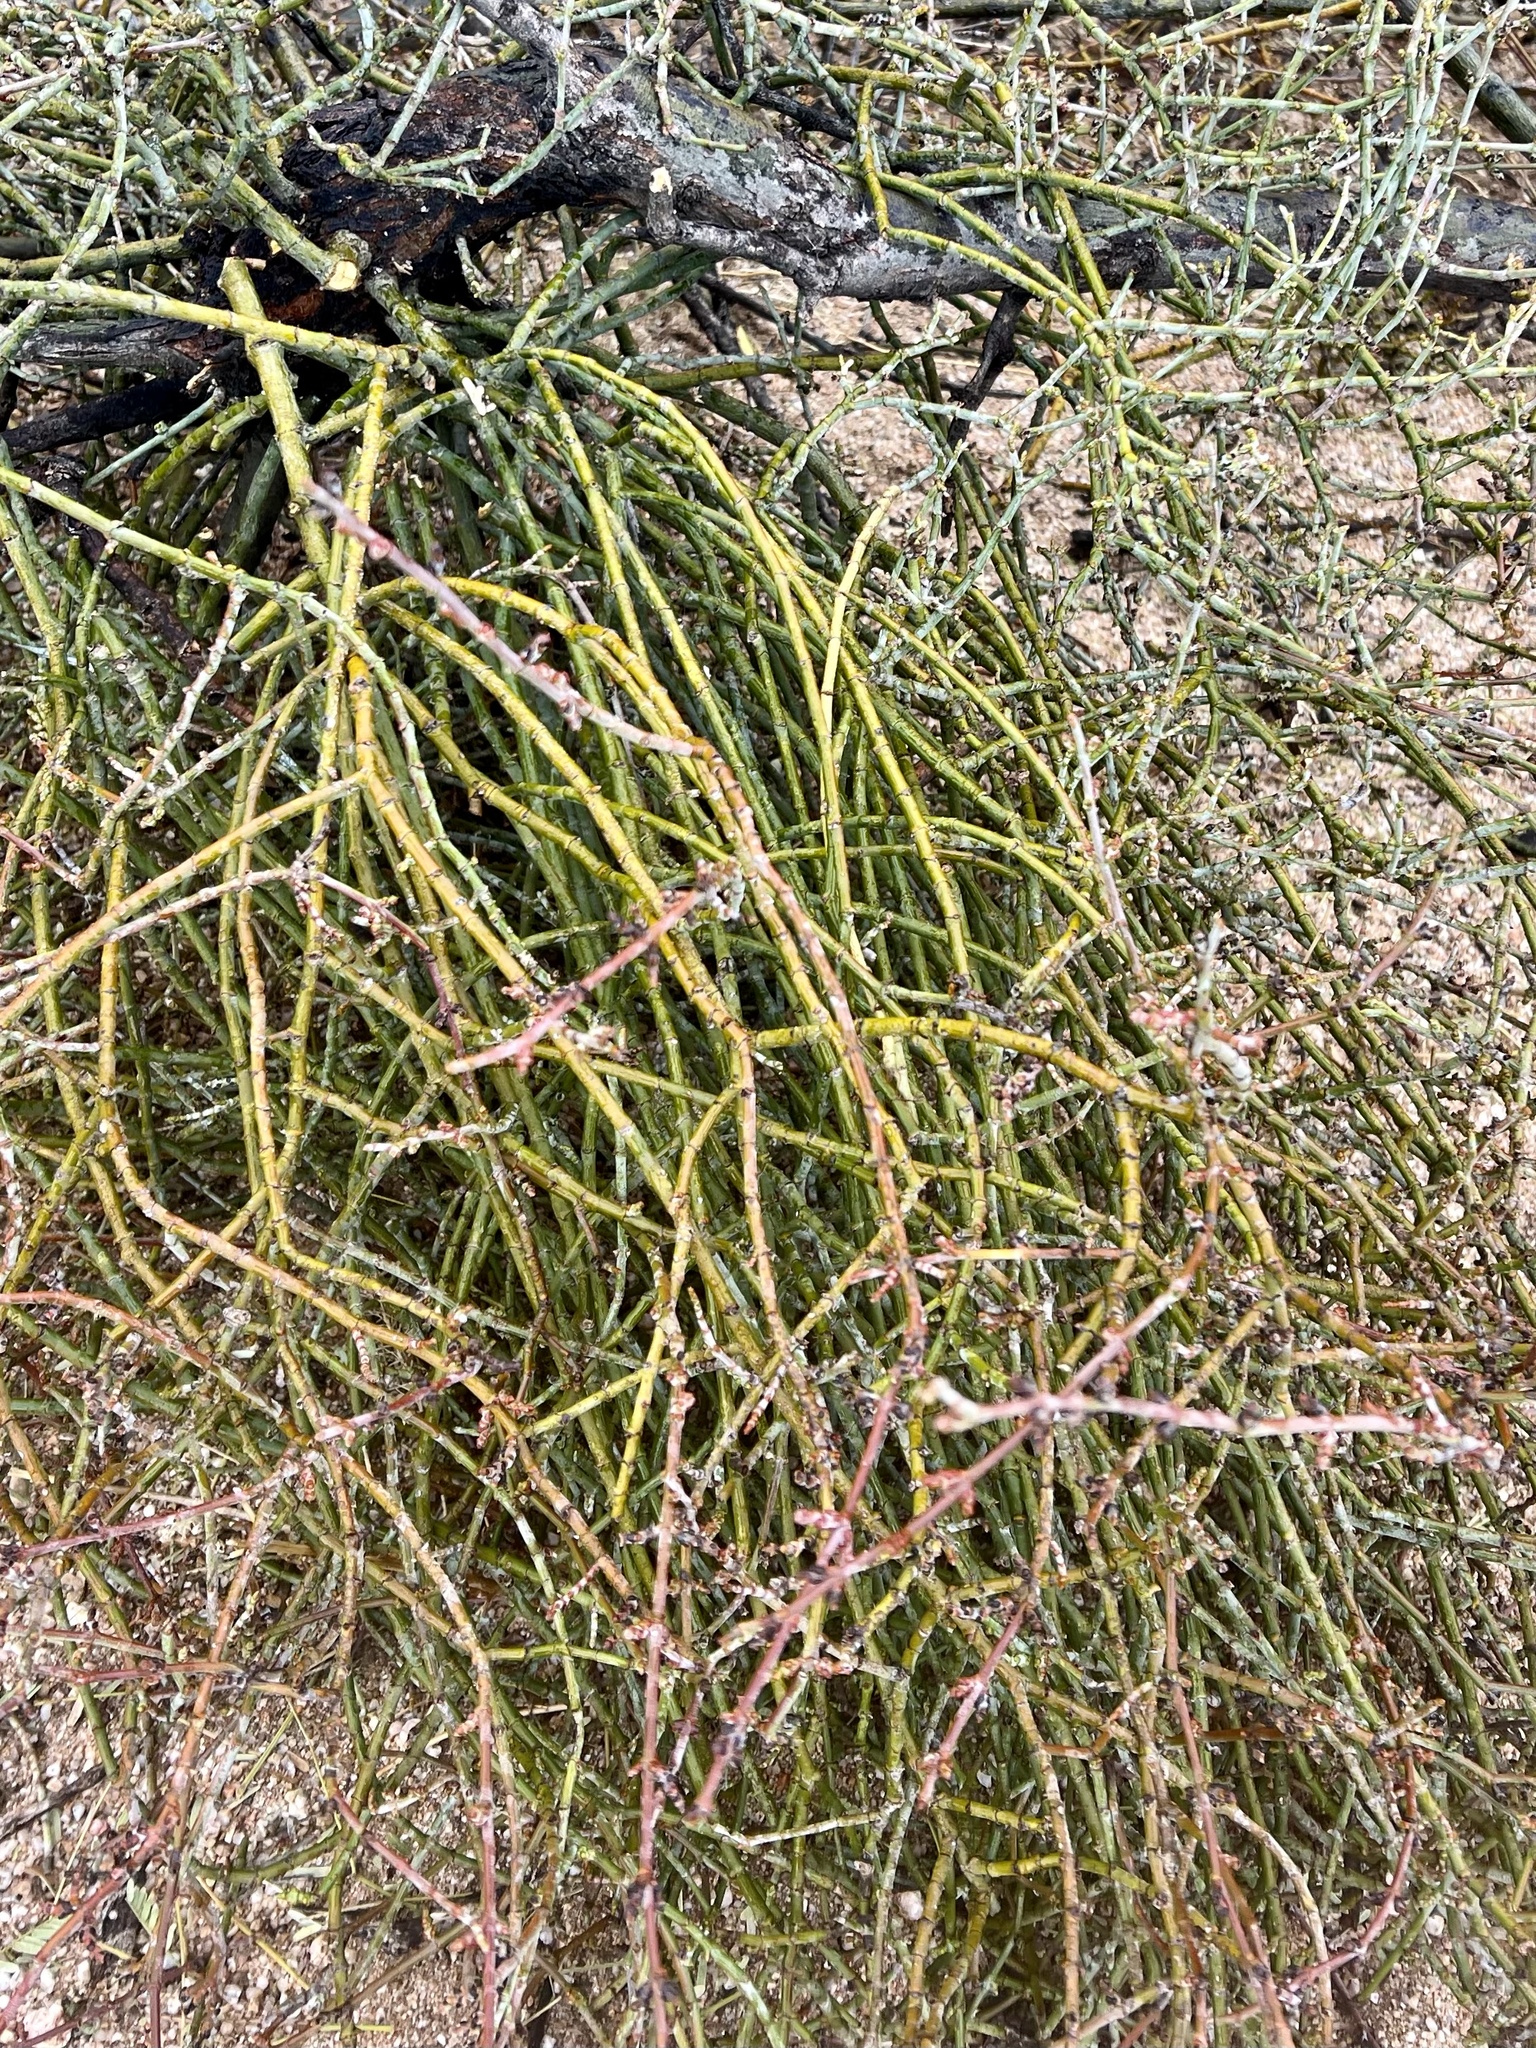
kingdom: Plantae
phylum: Tracheophyta
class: Magnoliopsida
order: Santalales
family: Viscaceae
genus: Phoradendron
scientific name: Phoradendron californicum
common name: Acacia mistletoe
